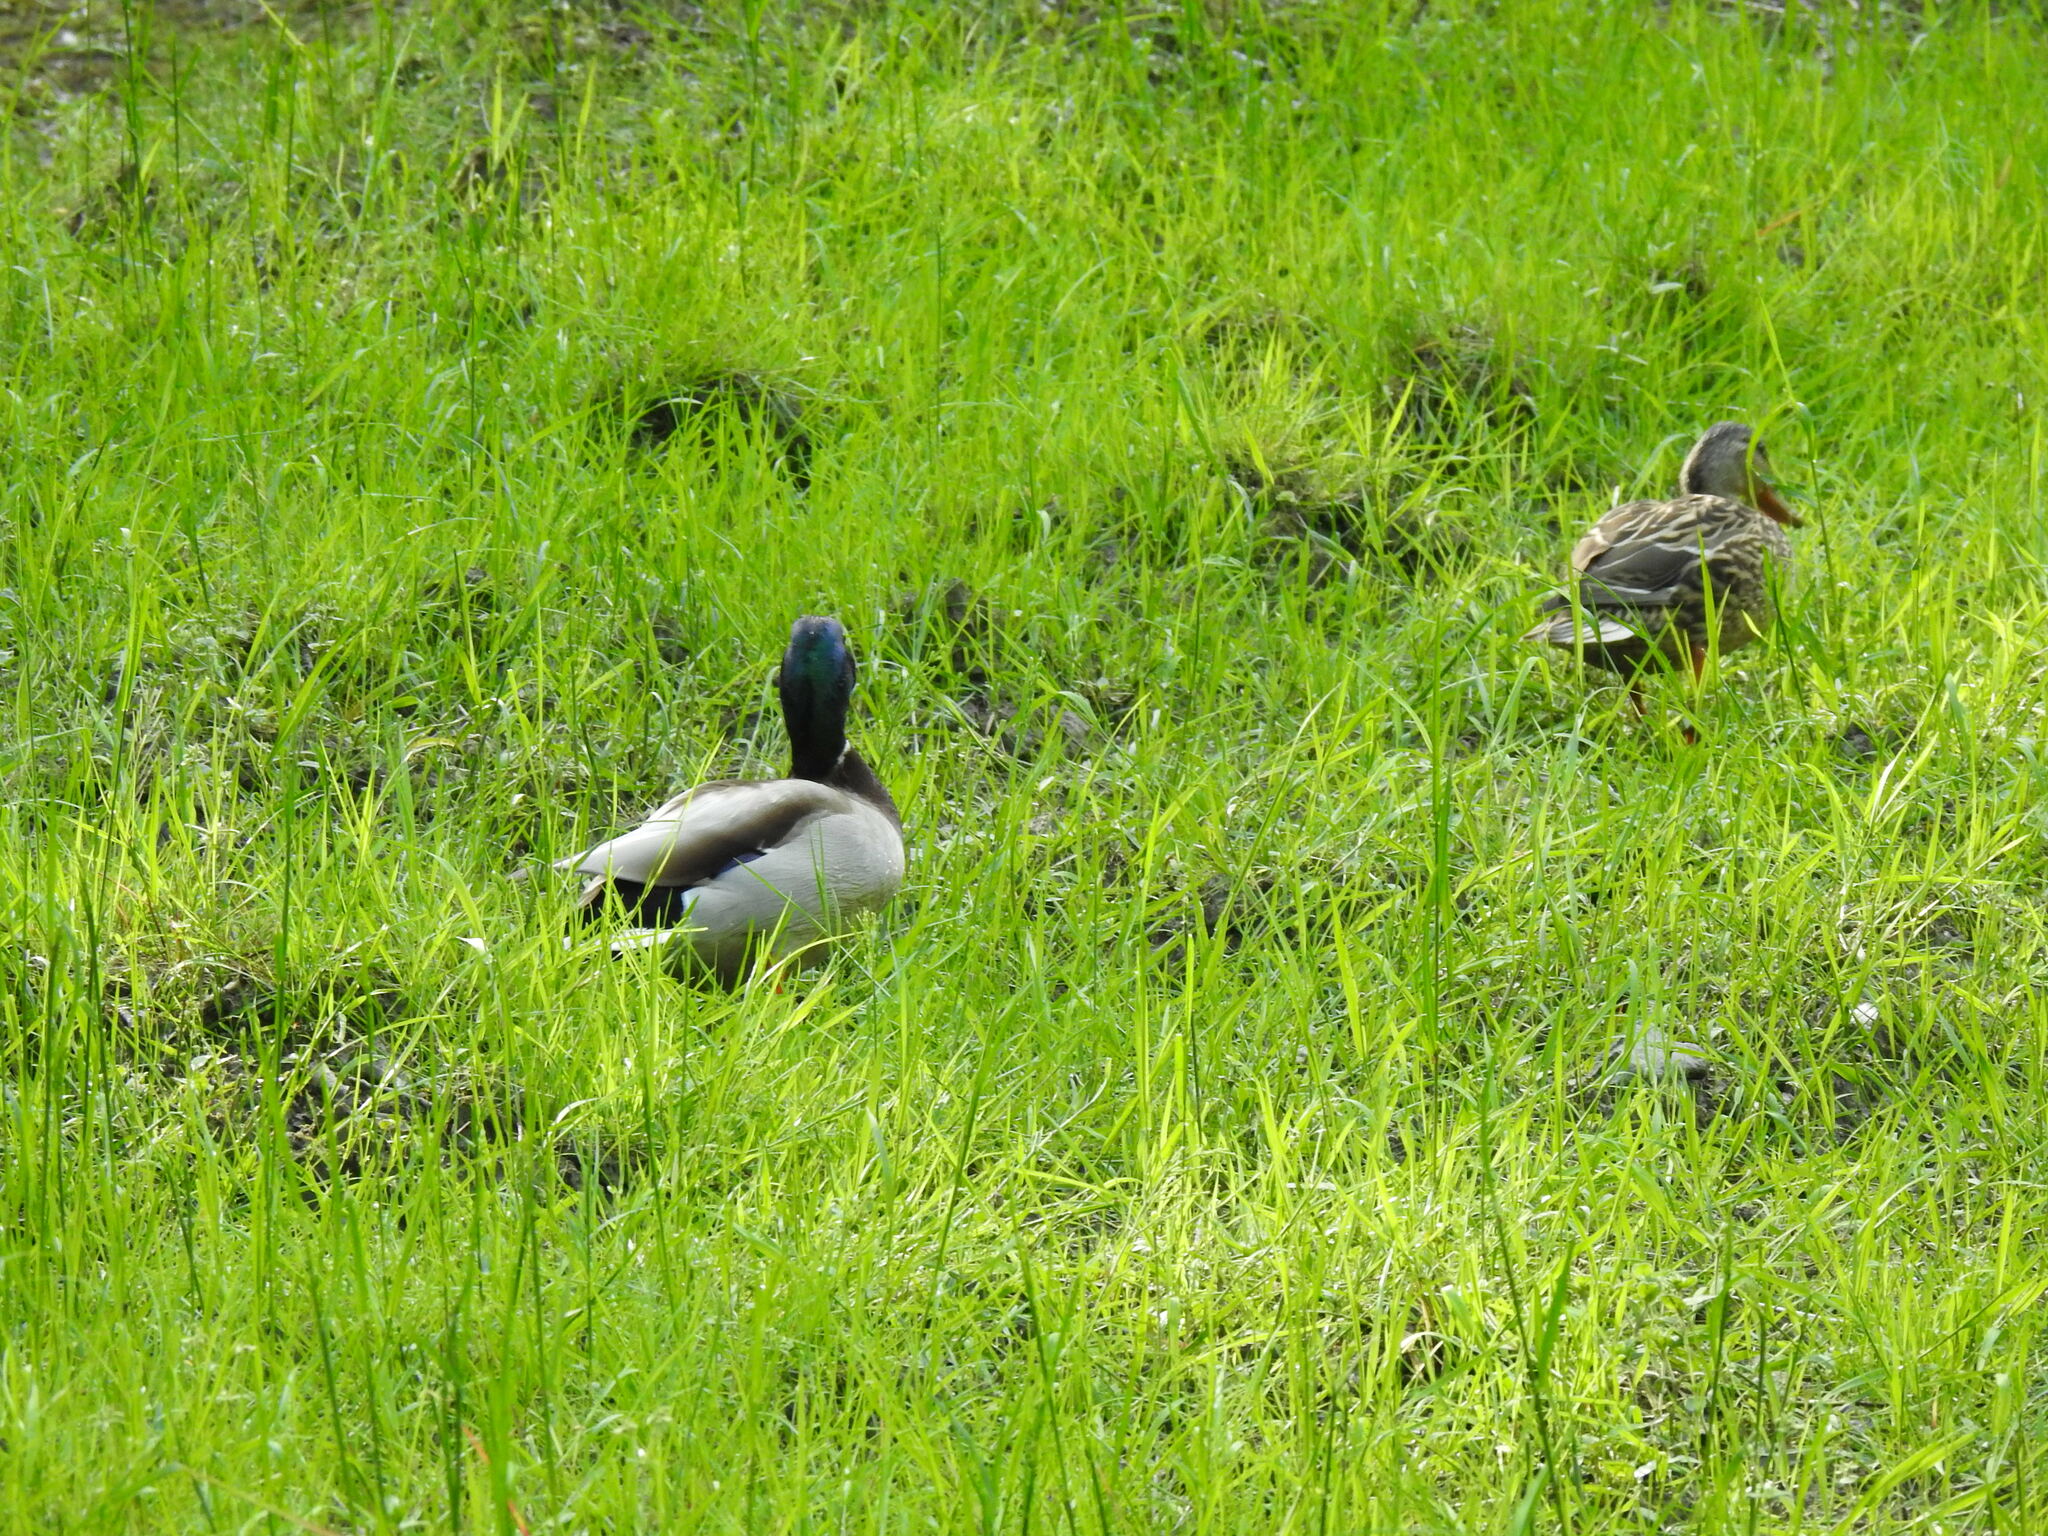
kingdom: Animalia
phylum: Chordata
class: Aves
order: Anseriformes
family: Anatidae
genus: Anas
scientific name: Anas platyrhynchos
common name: Mallard
